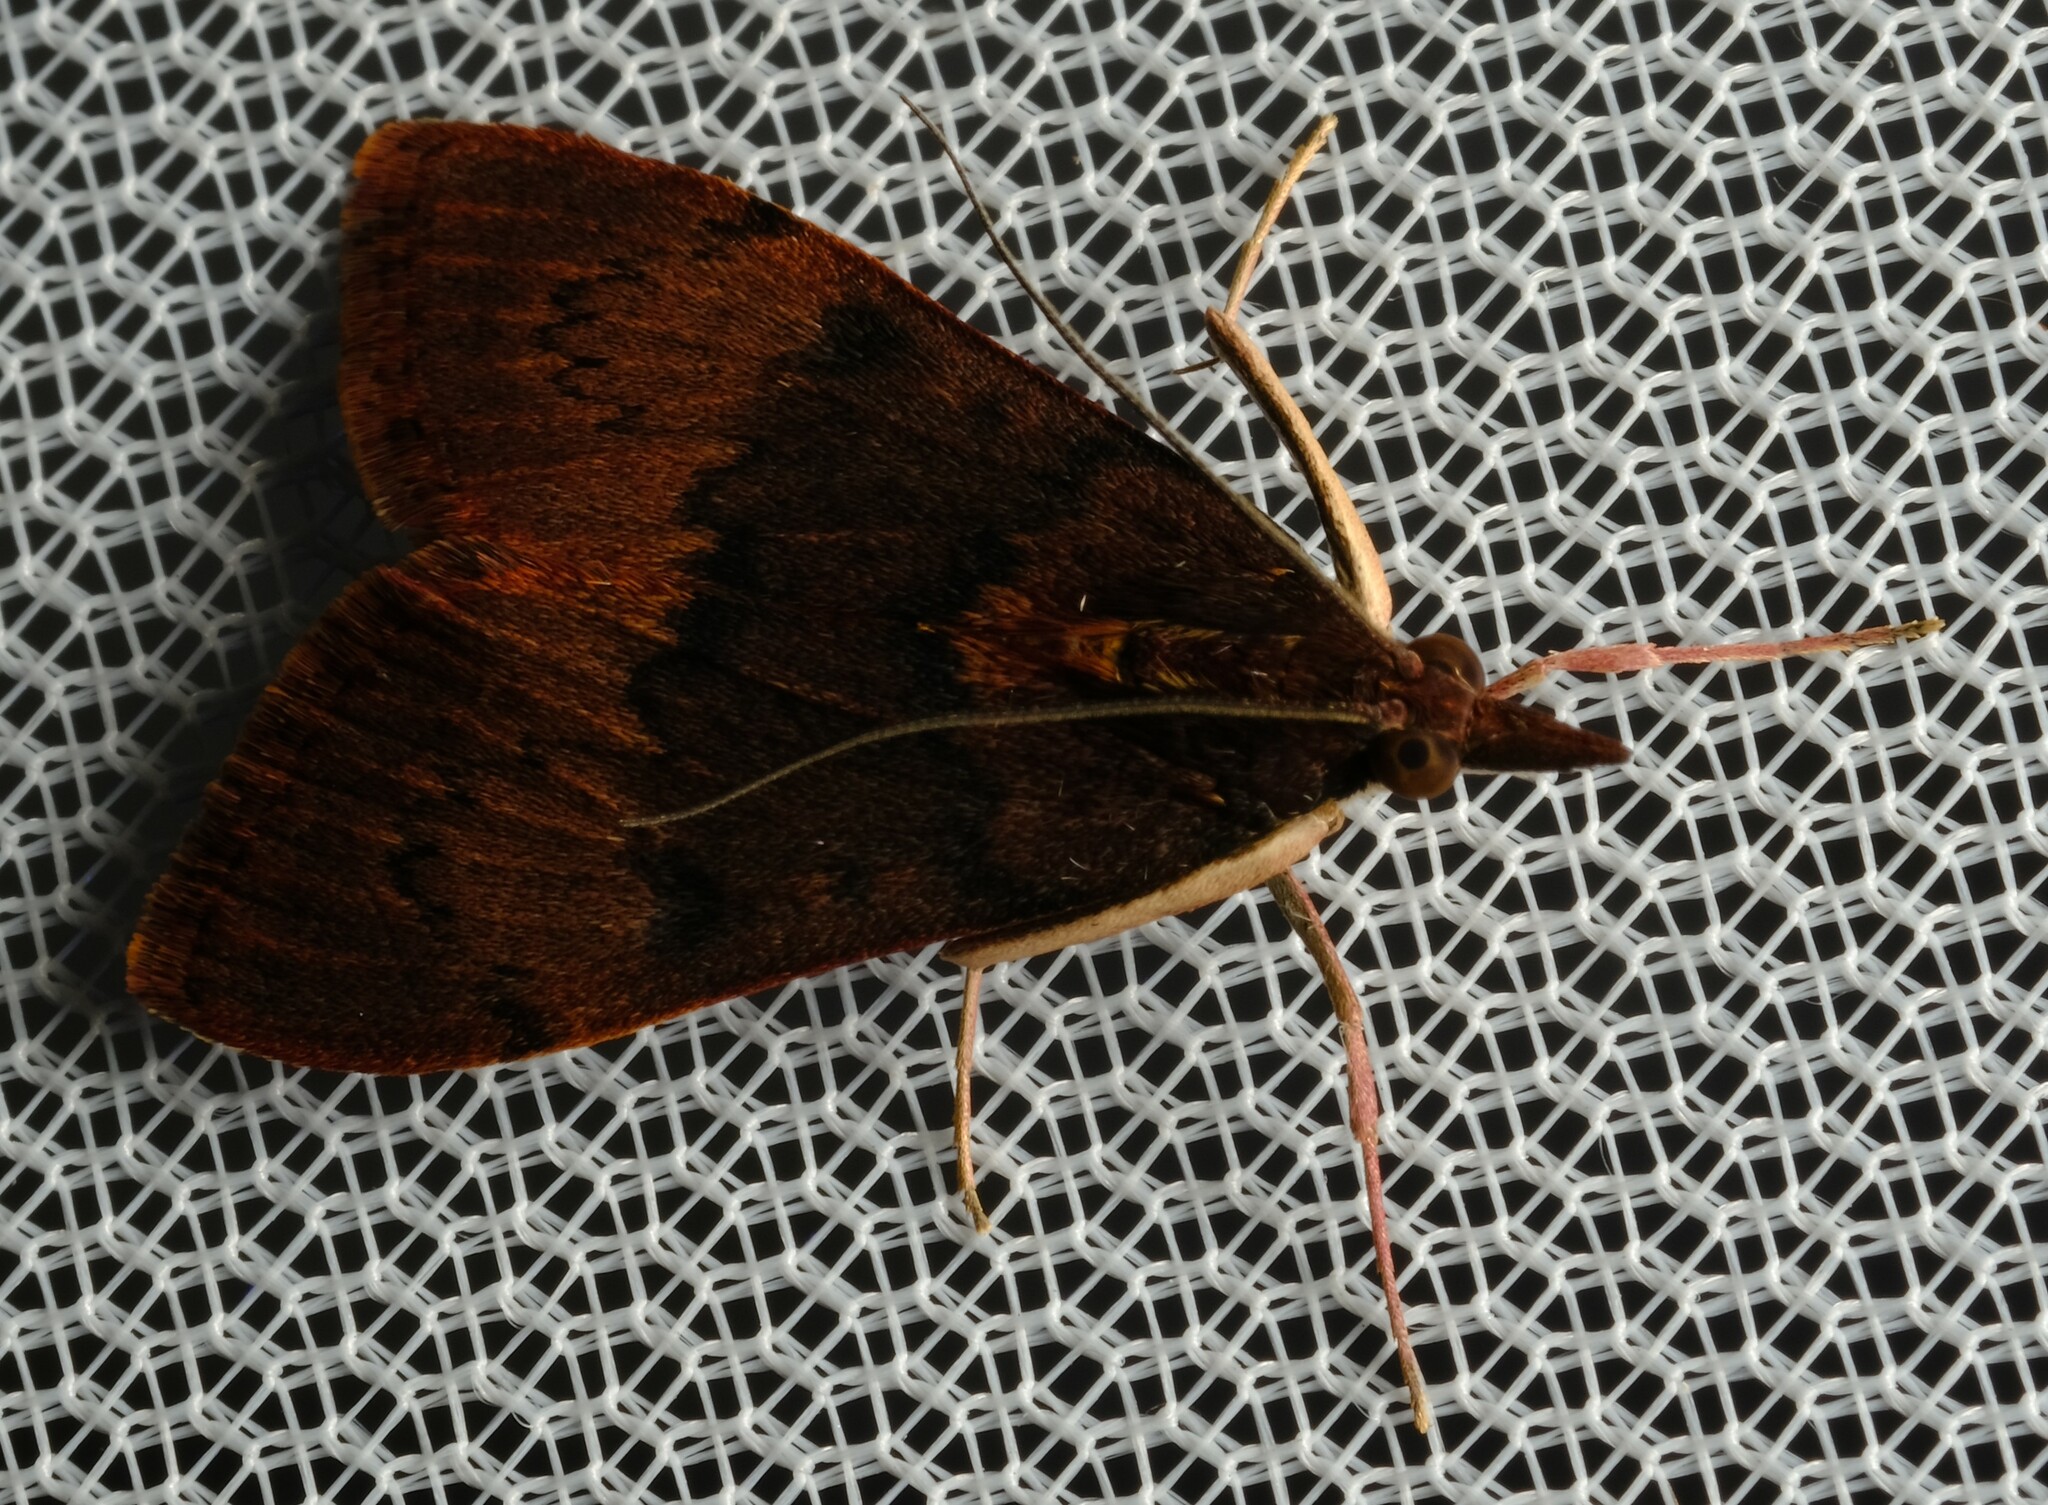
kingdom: Animalia
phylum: Arthropoda
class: Insecta
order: Lepidoptera
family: Crambidae
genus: Uresiphita
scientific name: Uresiphita ornithopteralis
